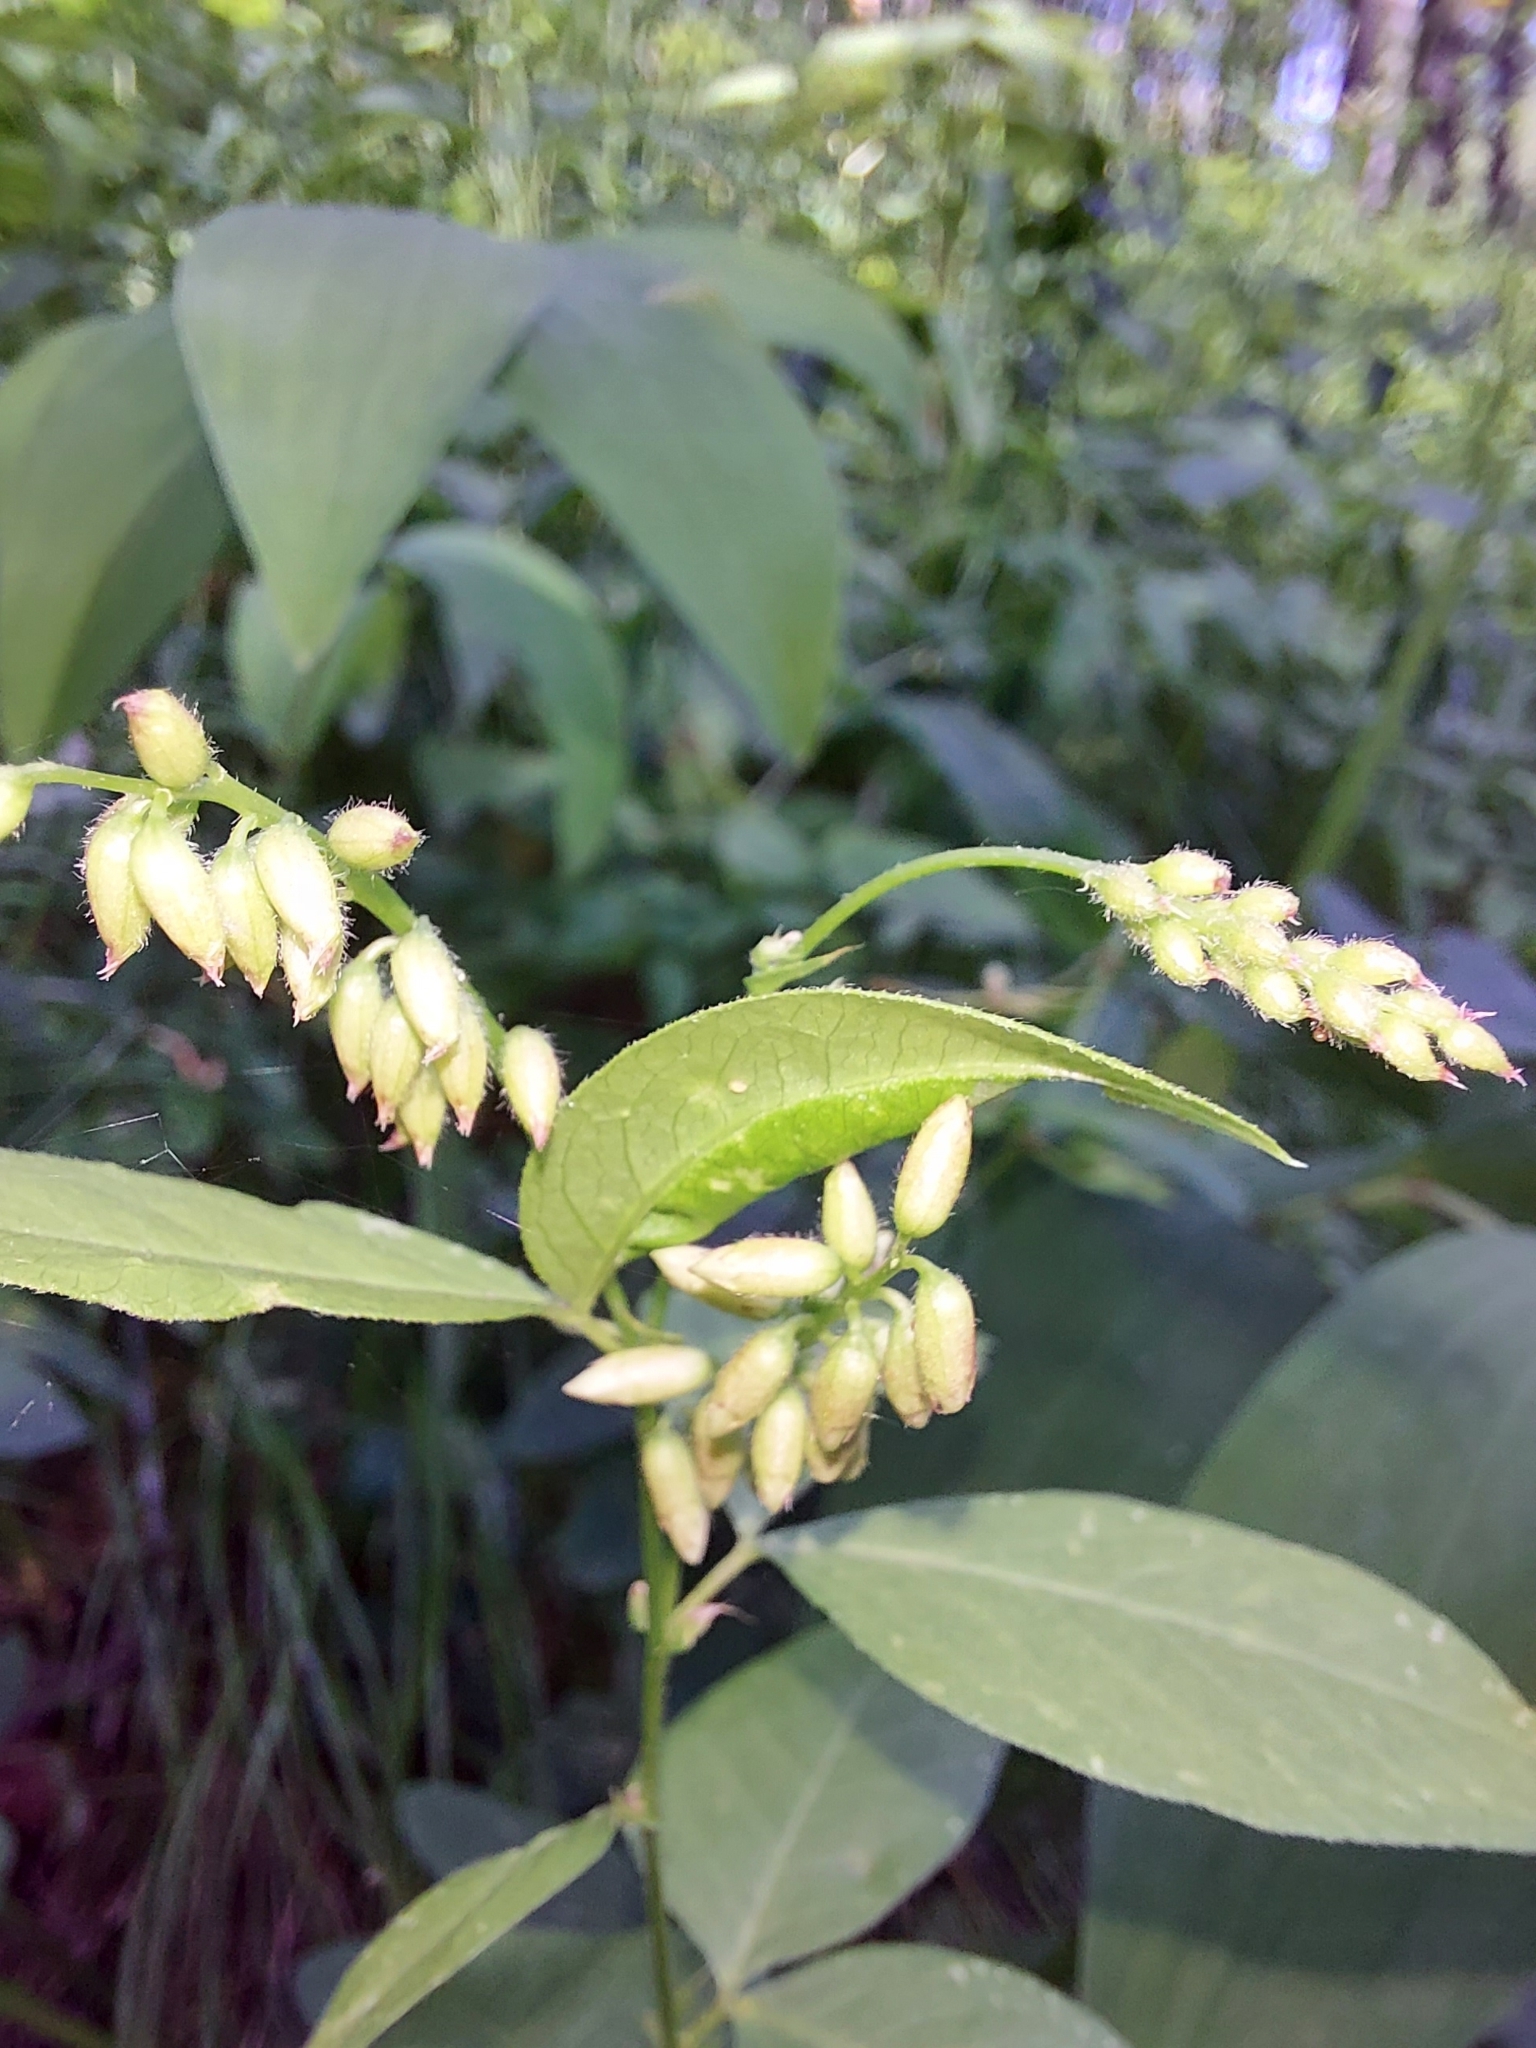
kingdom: Plantae
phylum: Tracheophyta
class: Magnoliopsida
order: Fabales
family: Fabaceae
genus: Vicia
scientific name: Vicia unijuga
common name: Two-leaf vetch
